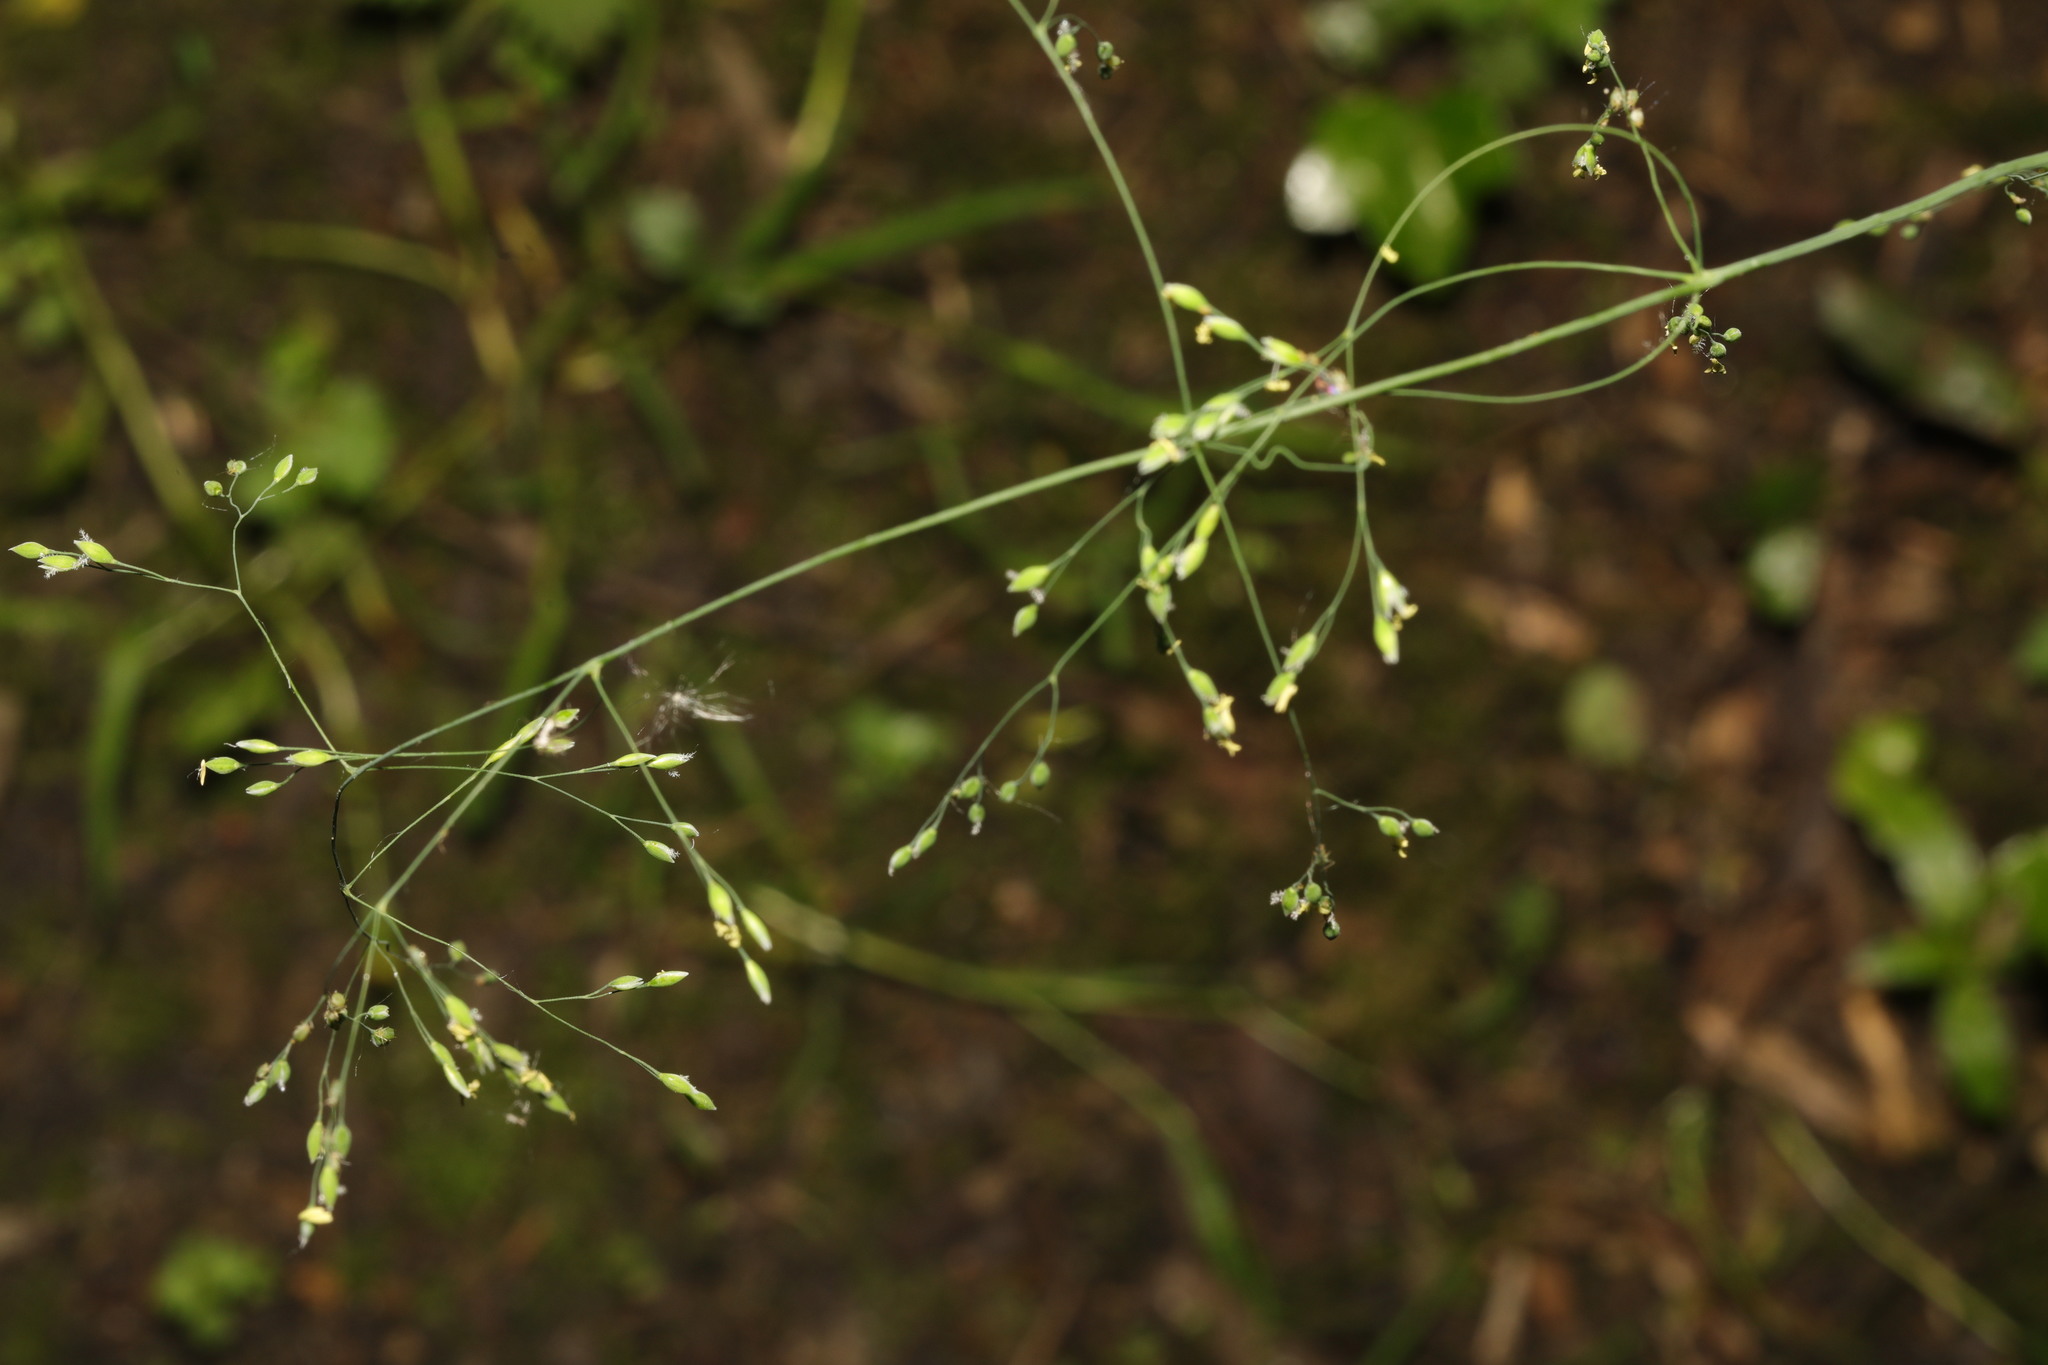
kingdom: Plantae
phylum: Tracheophyta
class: Liliopsida
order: Poales
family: Poaceae
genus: Milium
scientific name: Milium effusum
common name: Wood millet
